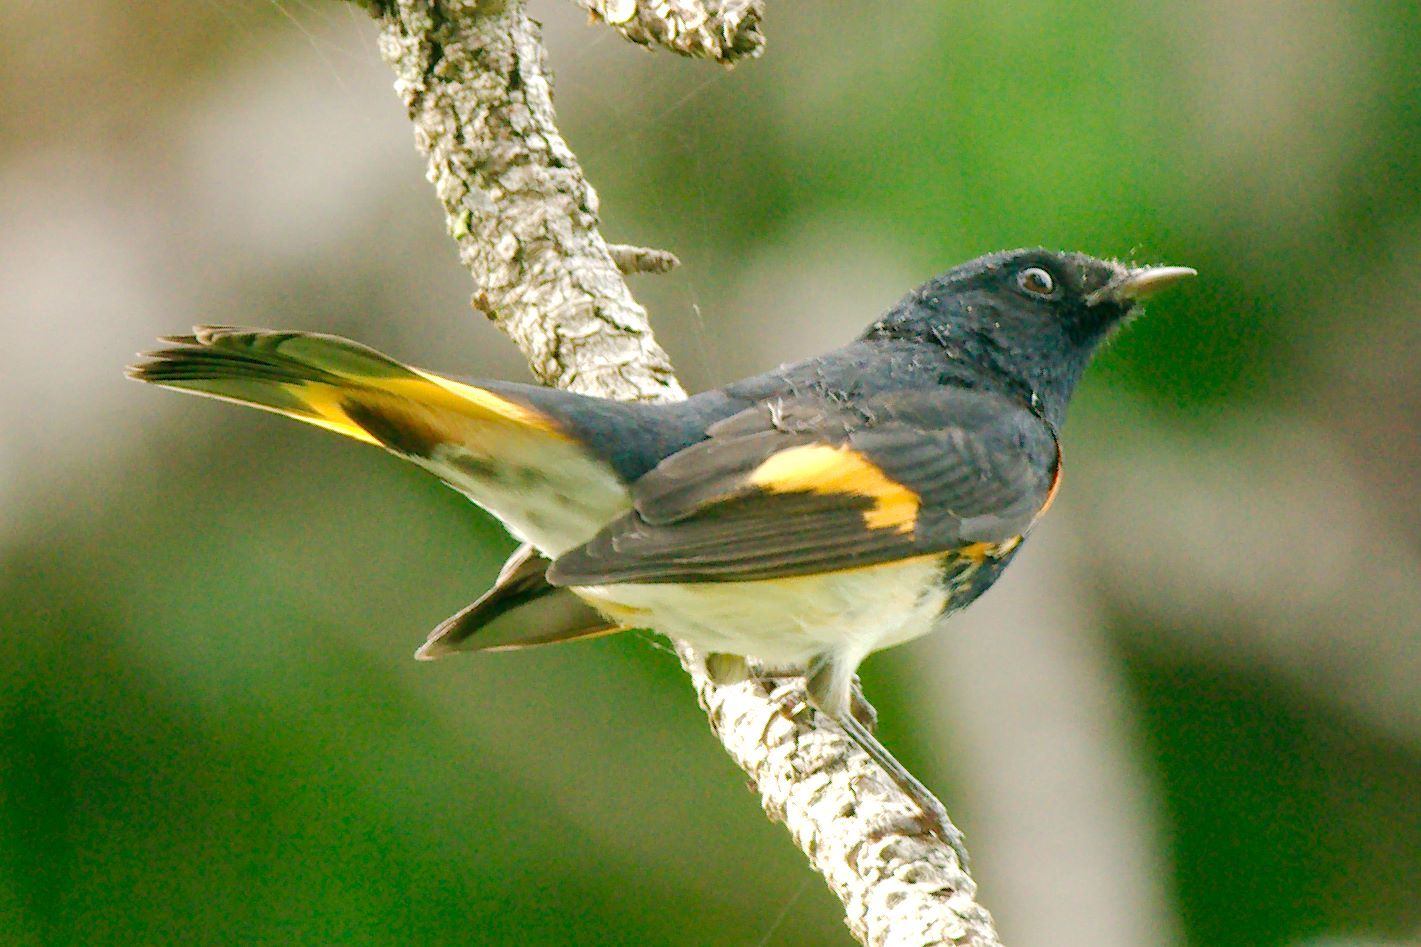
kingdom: Animalia
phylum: Chordata
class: Aves
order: Passeriformes
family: Parulidae
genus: Setophaga
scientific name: Setophaga ruticilla
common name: American redstart
